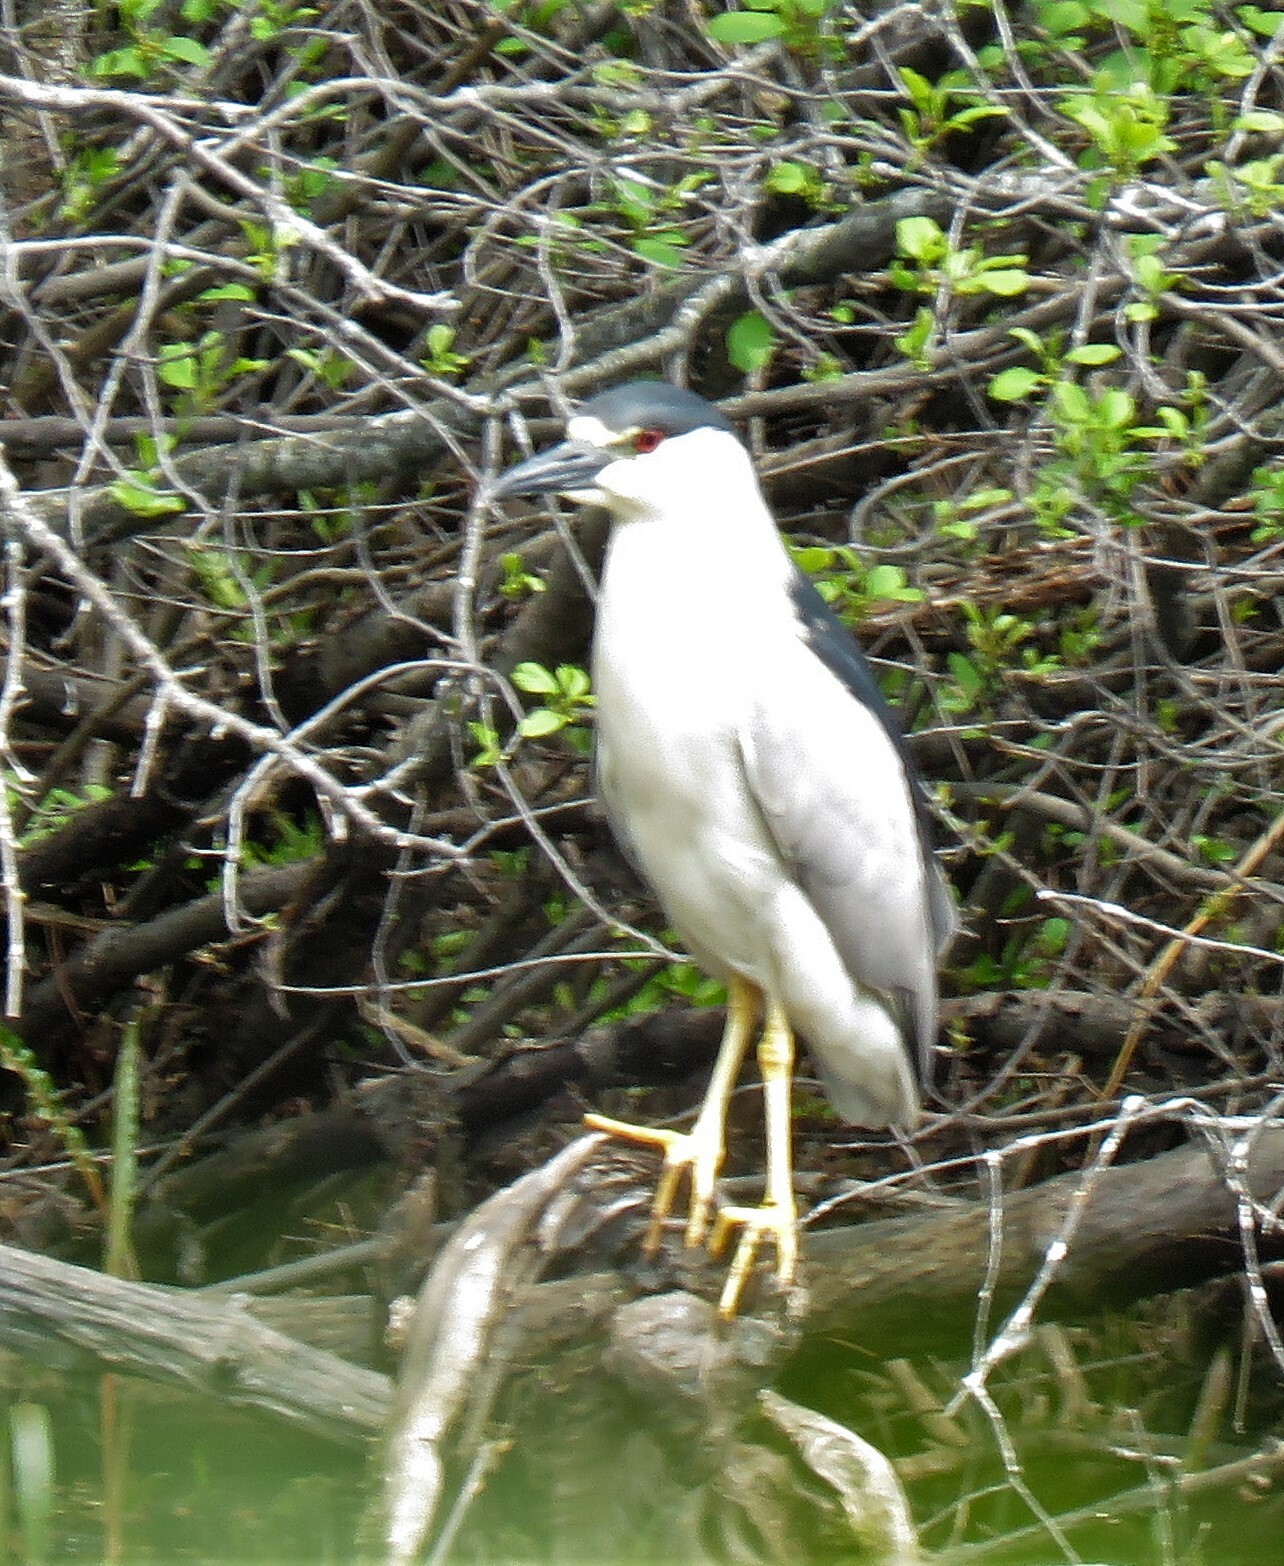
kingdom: Animalia
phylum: Chordata
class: Aves
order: Pelecaniformes
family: Ardeidae
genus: Nycticorax
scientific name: Nycticorax nycticorax
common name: Black-crowned night heron
